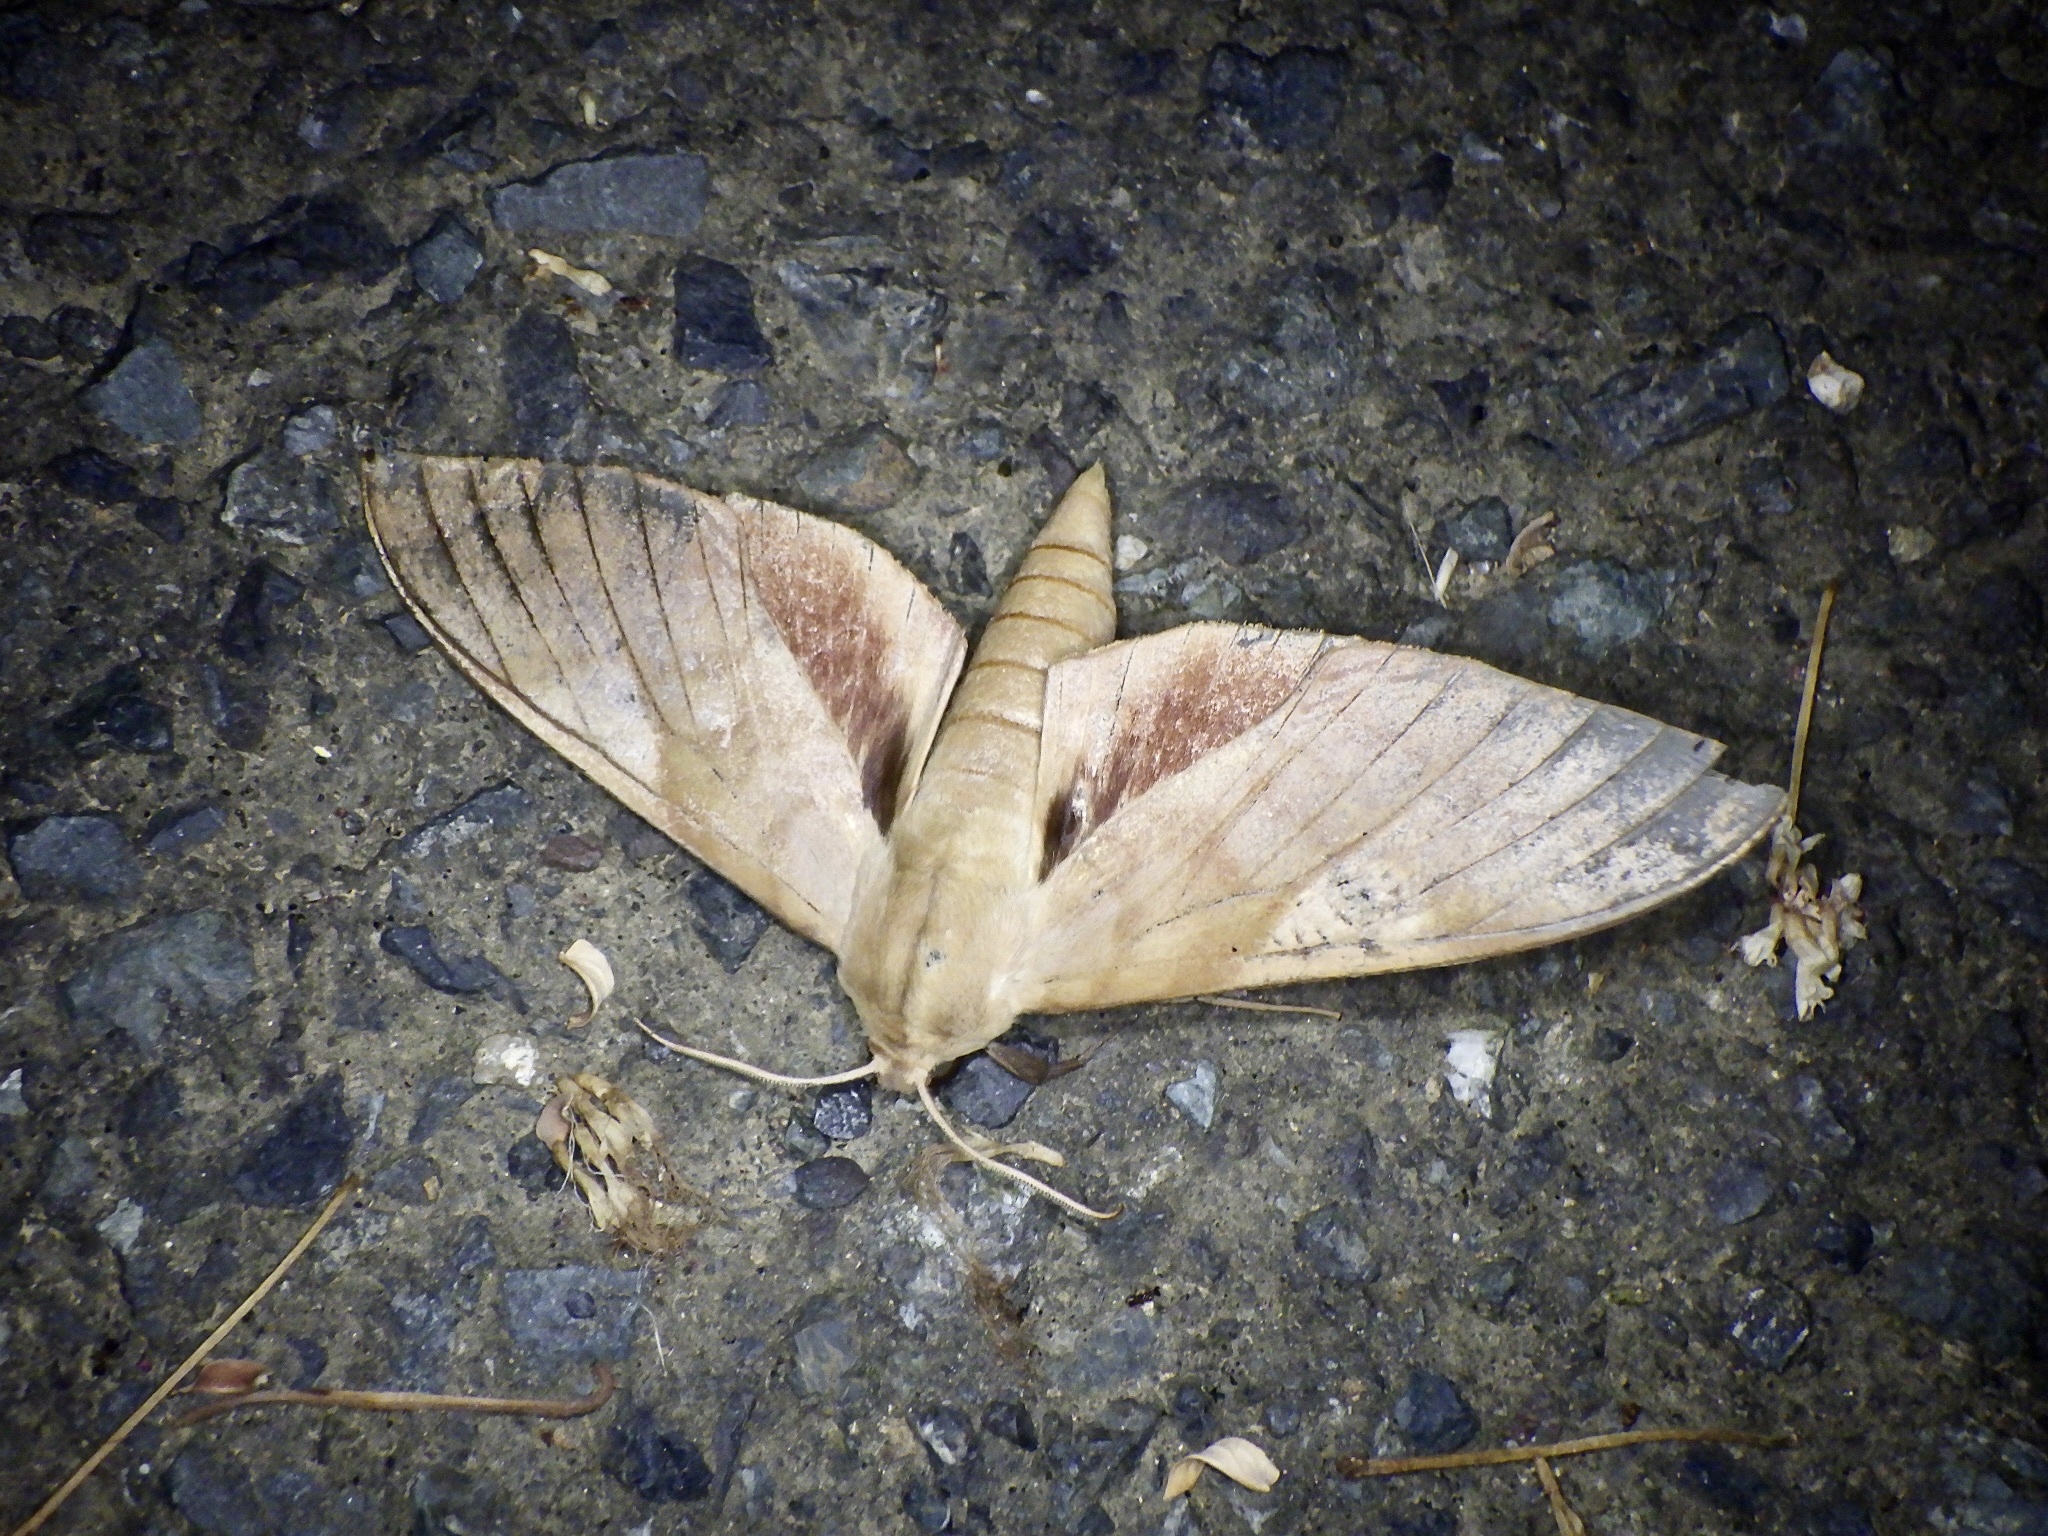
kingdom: Animalia
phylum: Arthropoda
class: Insecta
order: Lepidoptera
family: Sphingidae
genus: Clanis
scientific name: Clanis bilineata
